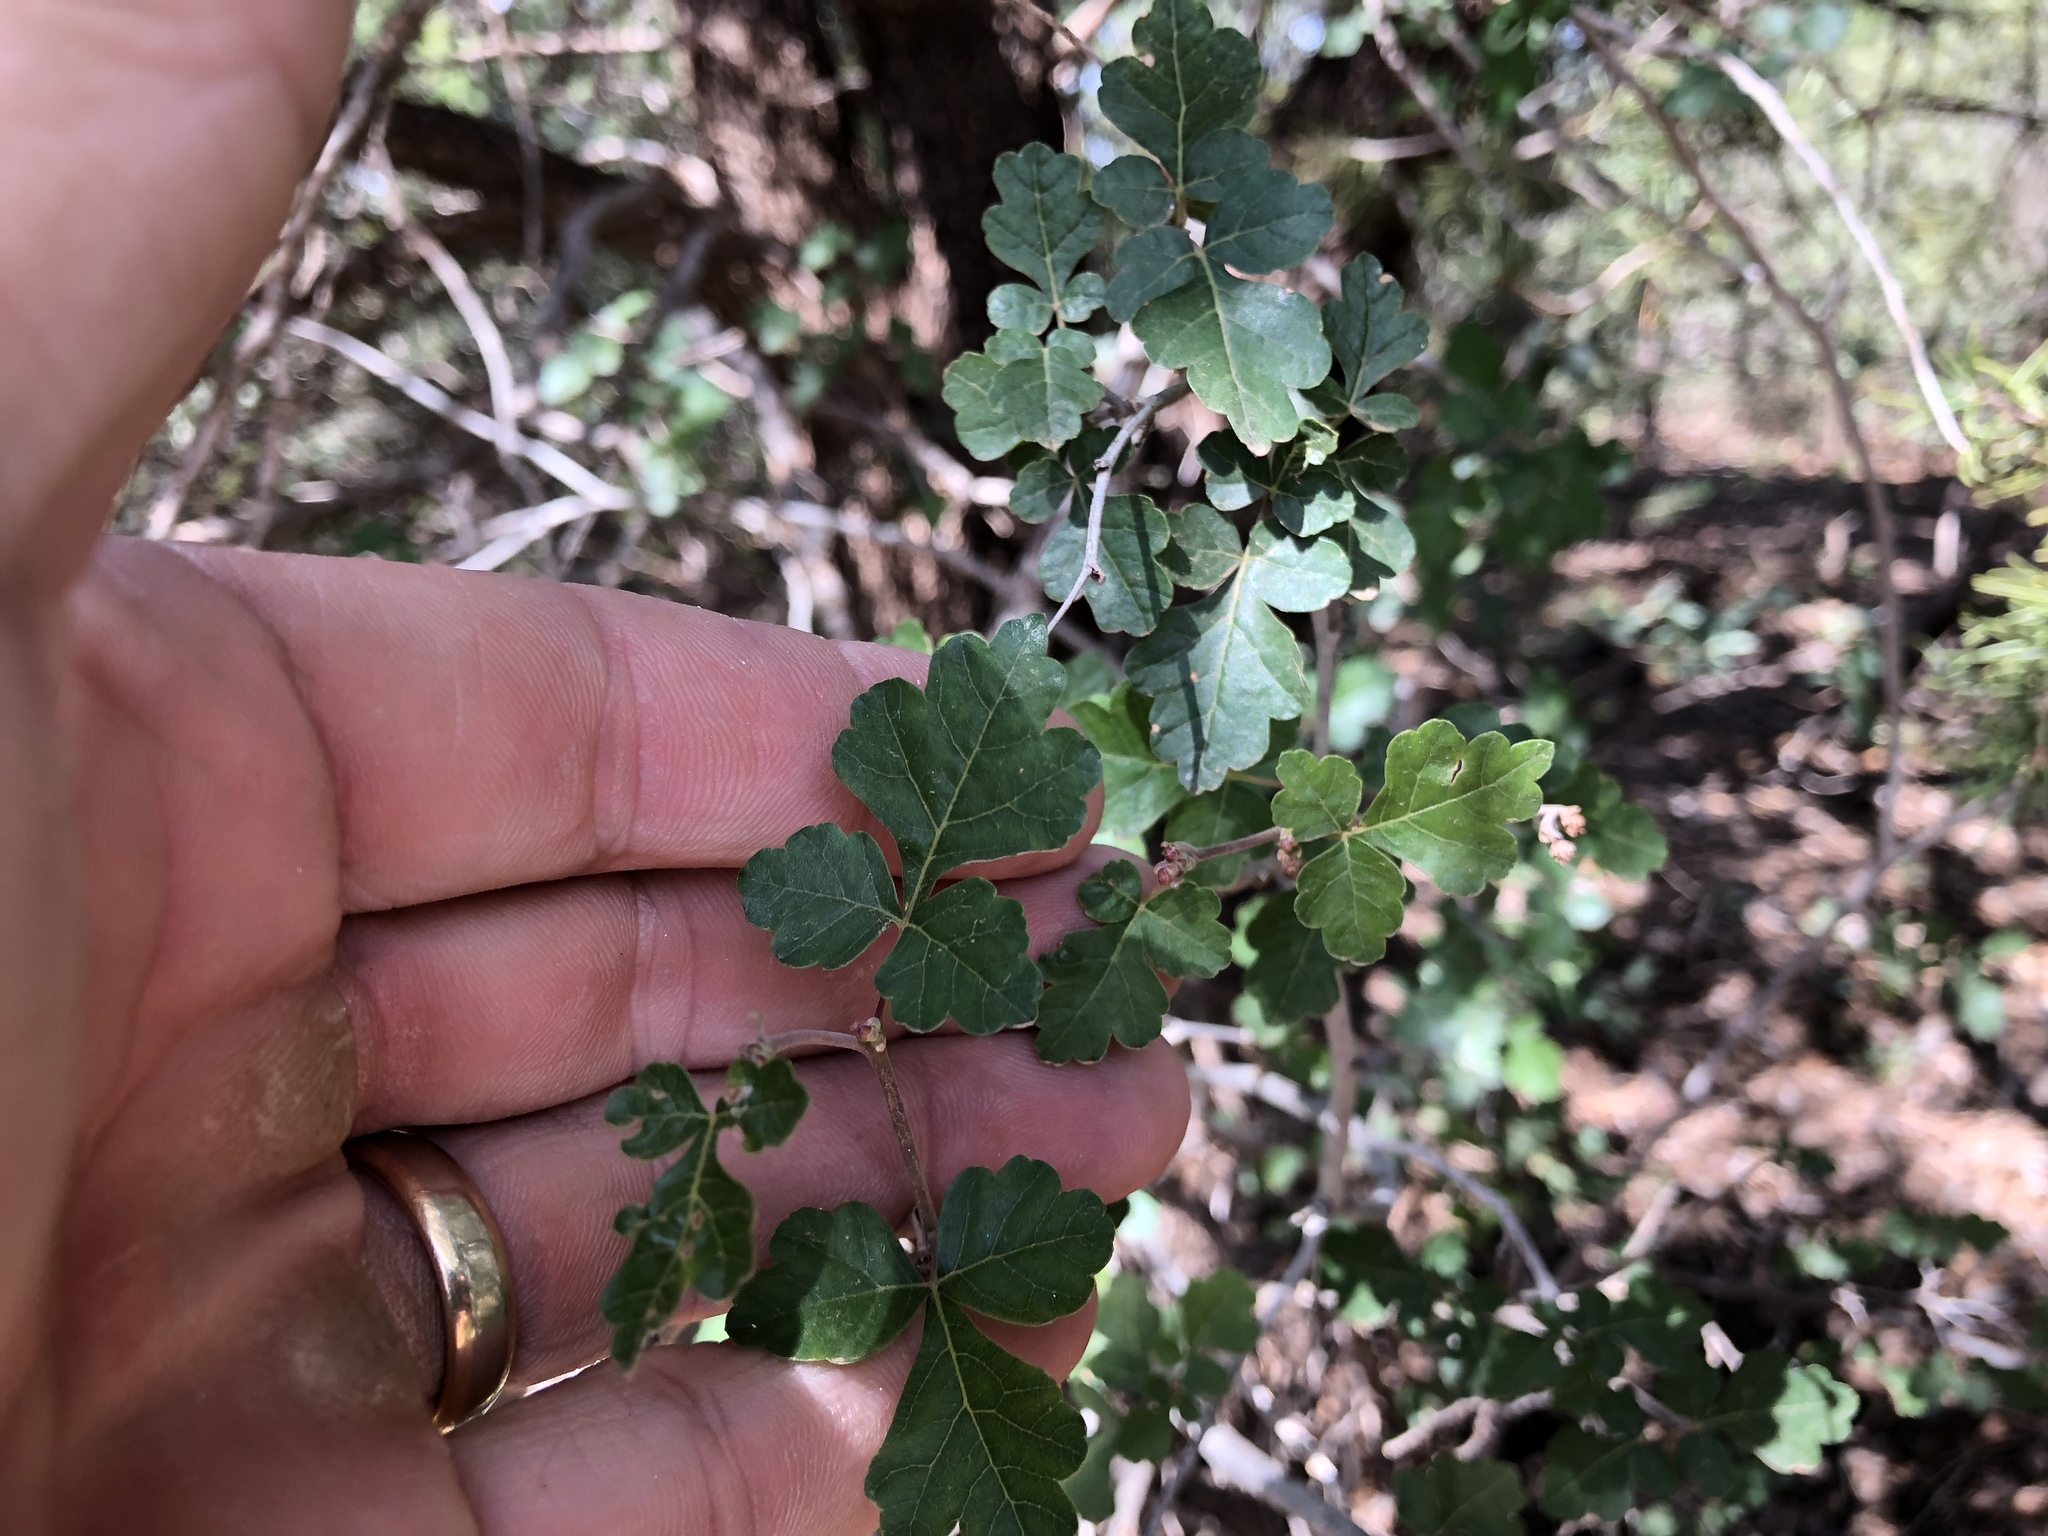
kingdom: Plantae
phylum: Tracheophyta
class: Magnoliopsida
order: Sapindales
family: Anacardiaceae
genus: Rhus
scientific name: Rhus aromatica
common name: Aromatic sumac
